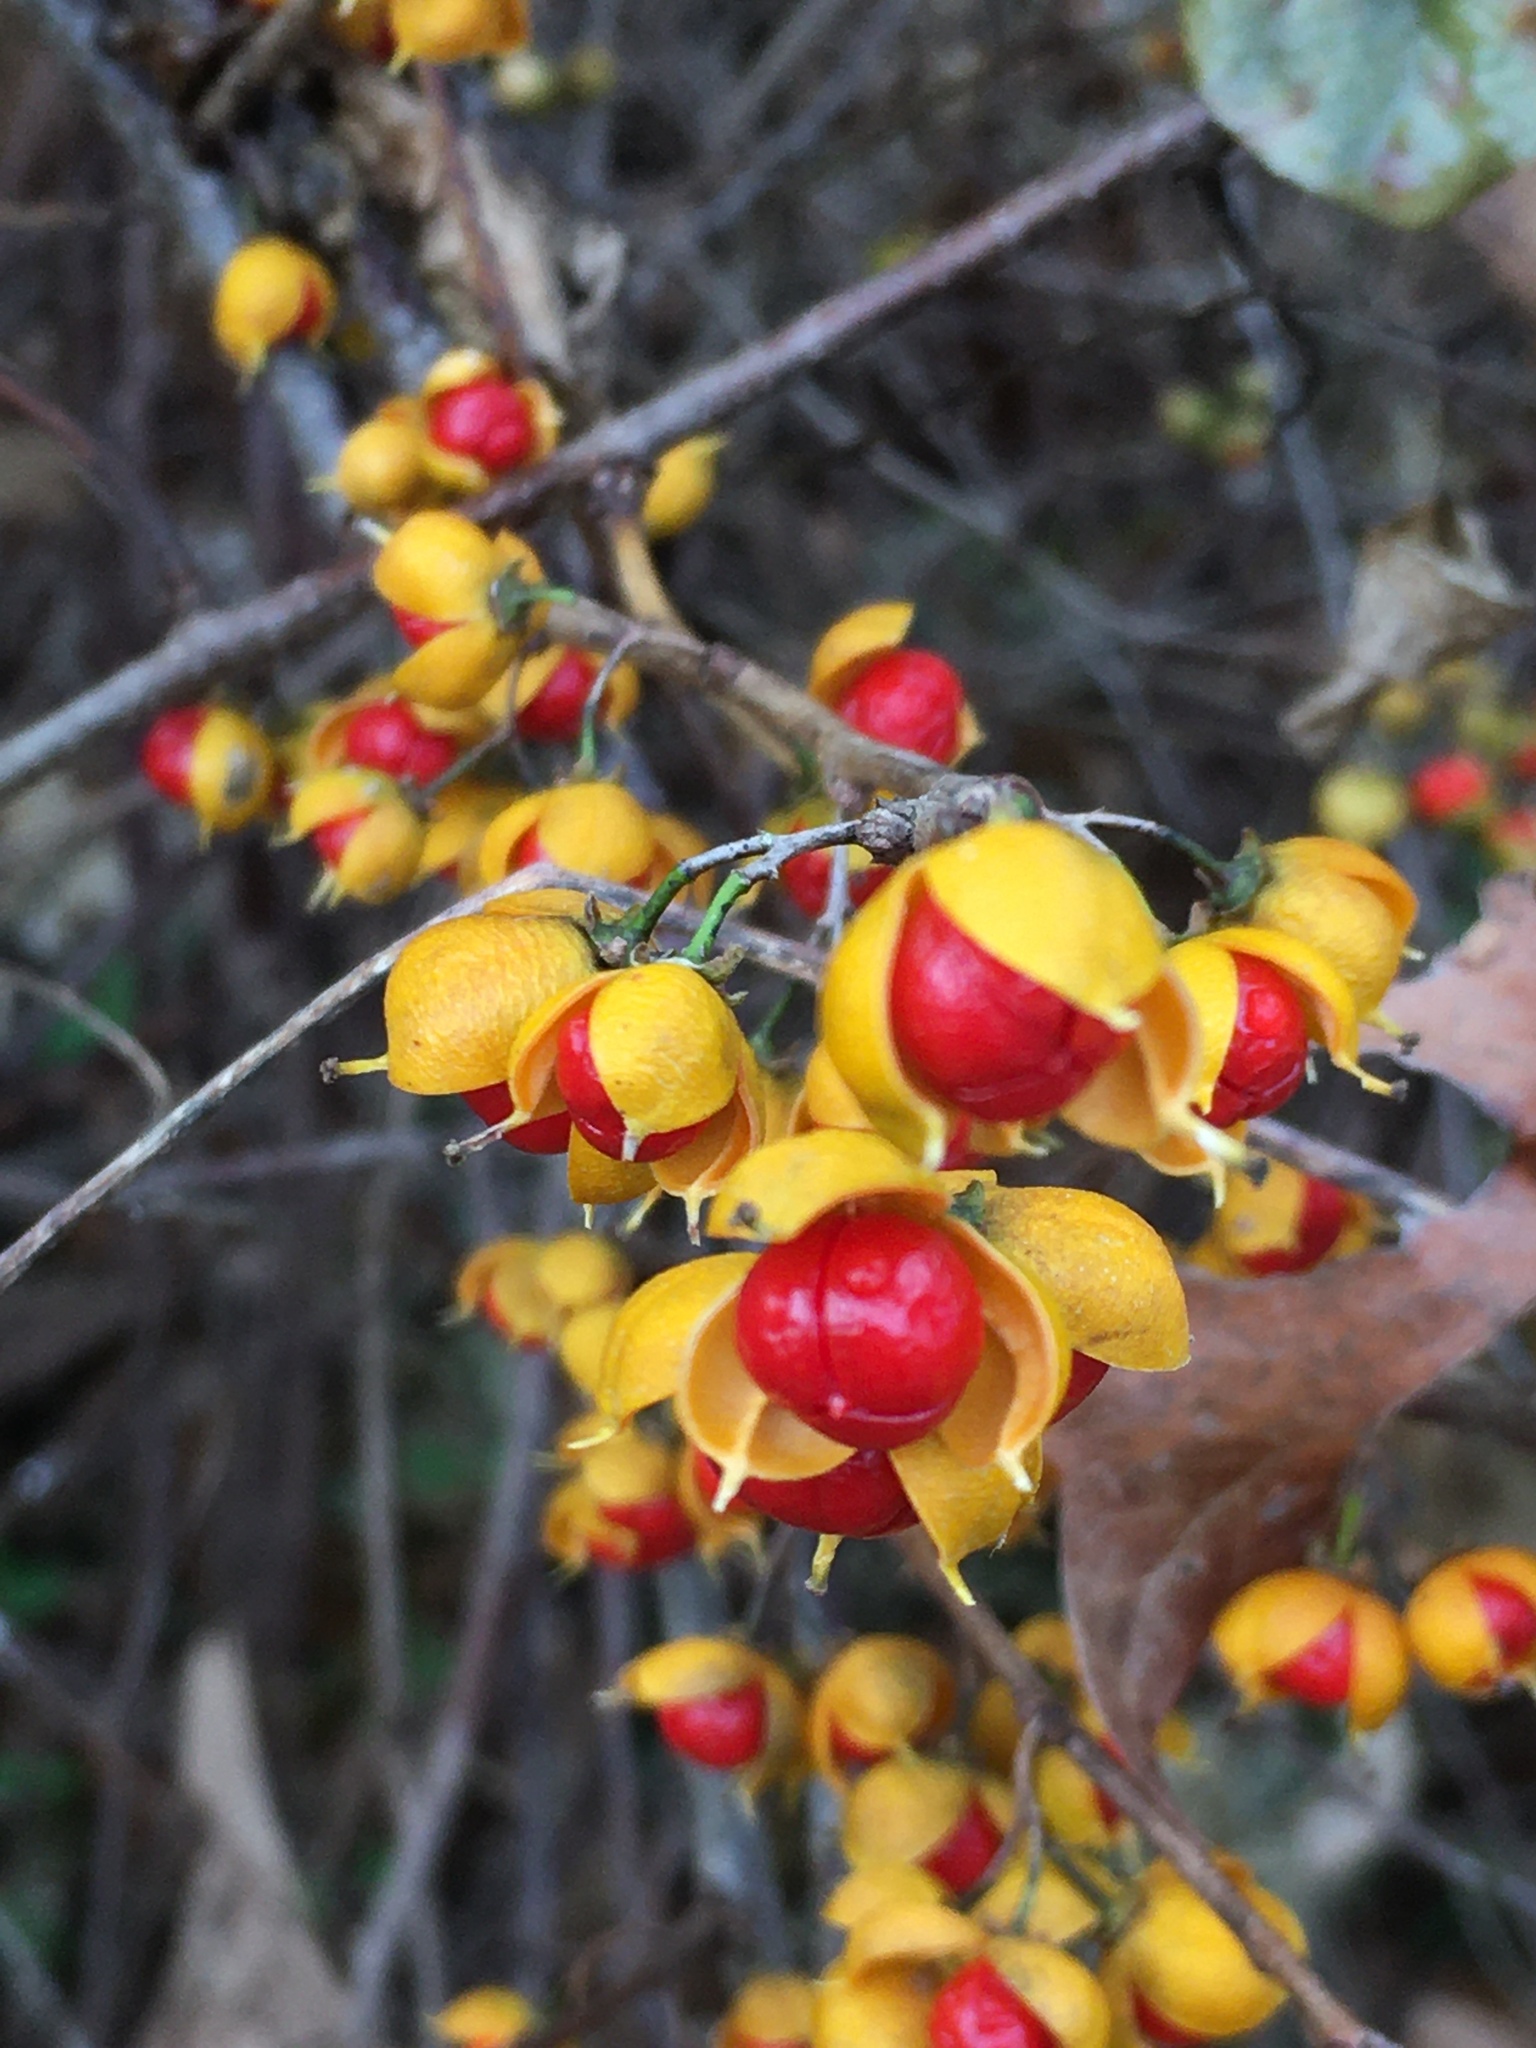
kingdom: Plantae
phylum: Tracheophyta
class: Magnoliopsida
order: Celastrales
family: Celastraceae
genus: Celastrus
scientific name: Celastrus orbiculatus
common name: Oriental bittersweet
